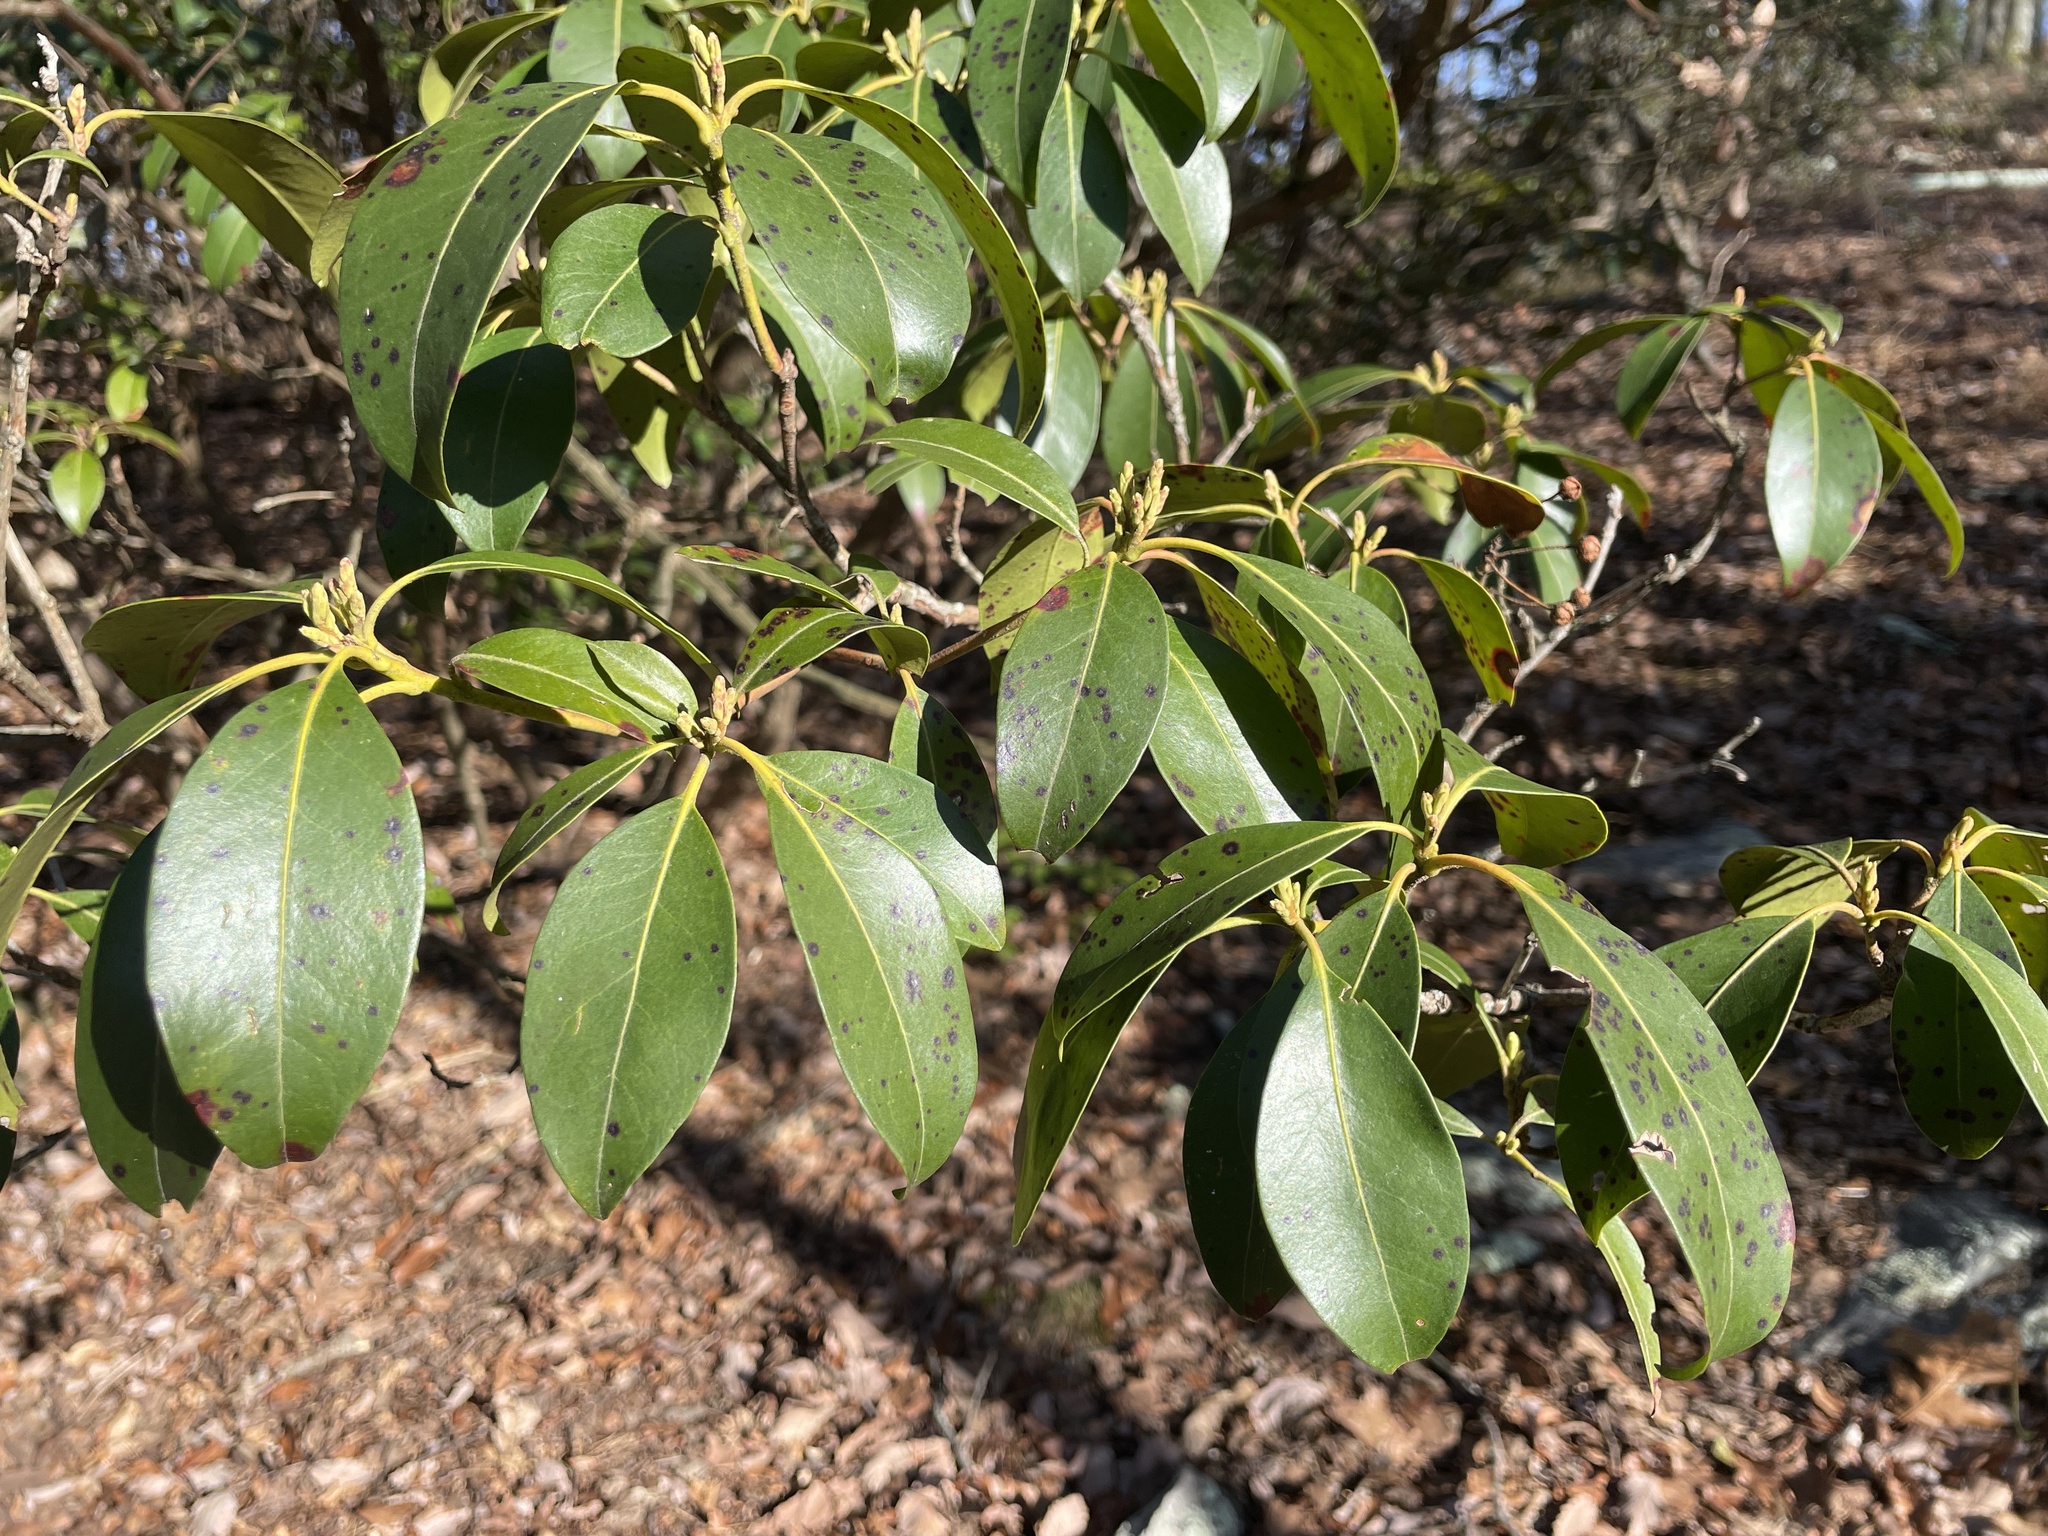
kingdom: Plantae
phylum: Tracheophyta
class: Magnoliopsida
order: Ericales
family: Ericaceae
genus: Kalmia
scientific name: Kalmia latifolia
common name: Mountain-laurel
